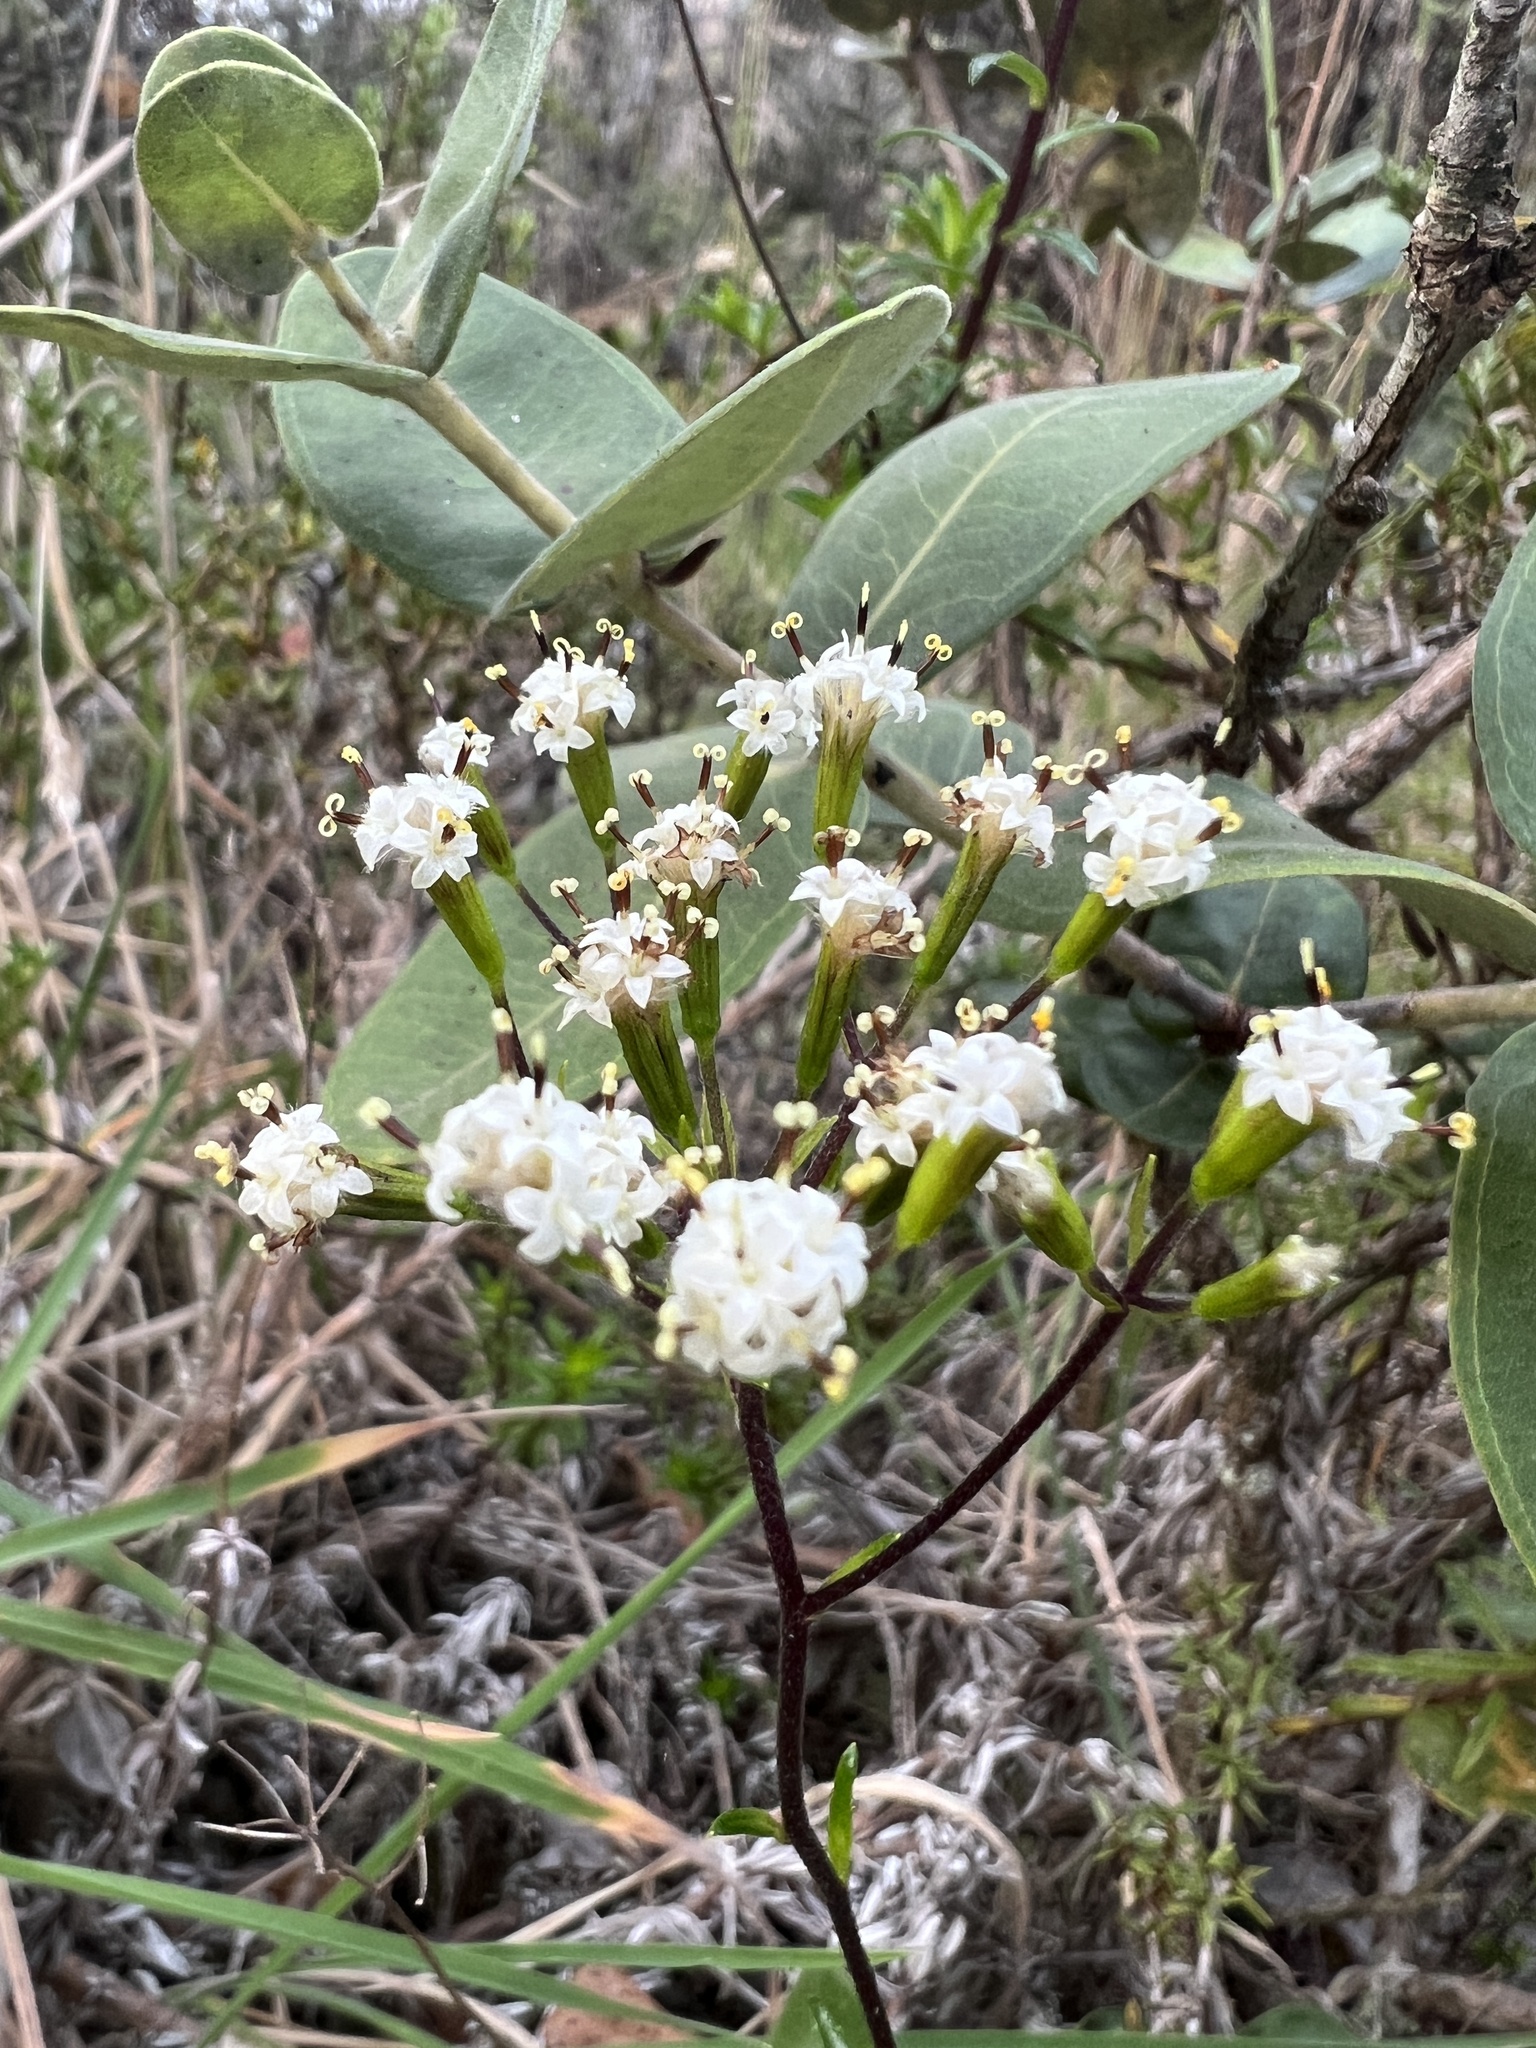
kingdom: Plantae
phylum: Tracheophyta
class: Magnoliopsida
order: Asterales
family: Asteraceae
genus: Dubautia
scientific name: Dubautia scabra
